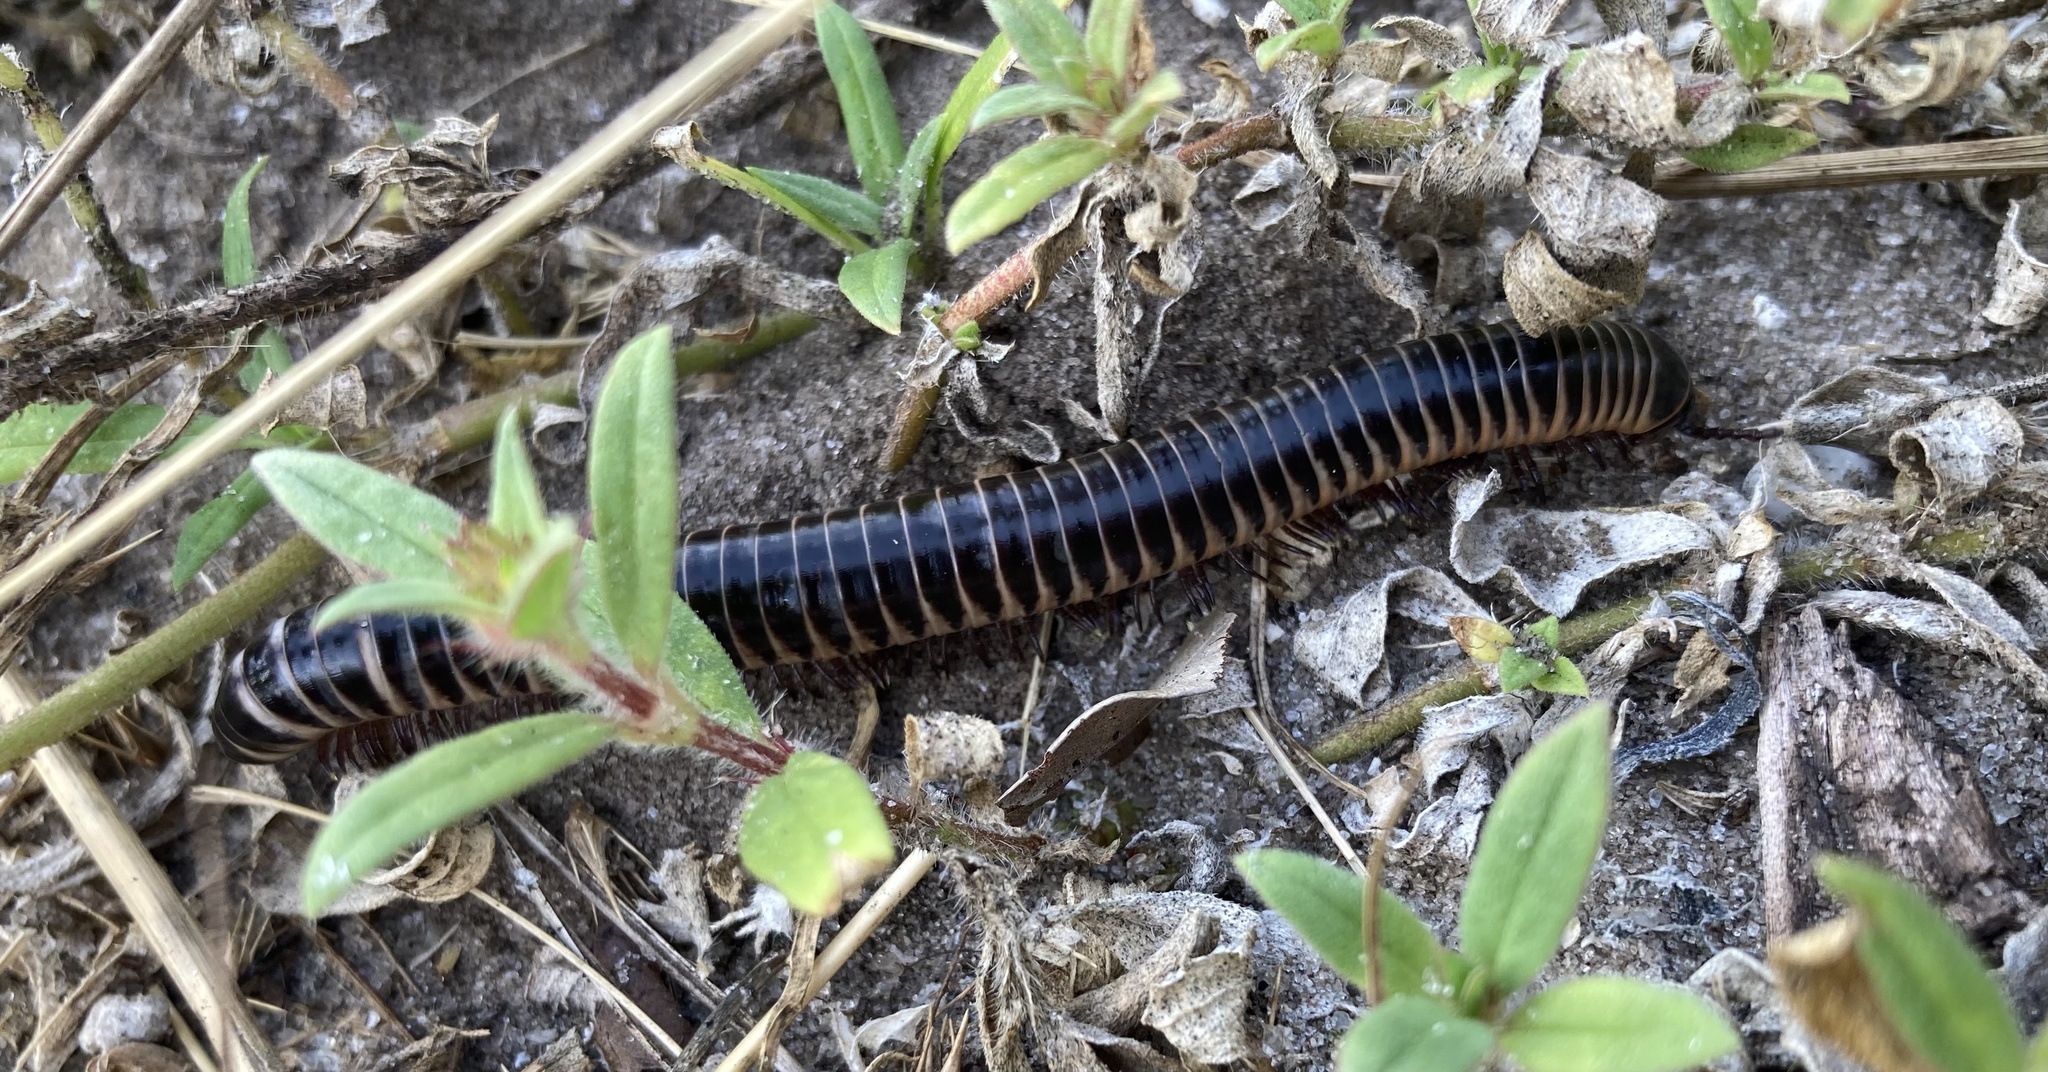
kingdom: Animalia
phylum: Arthropoda
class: Diplopoda
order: Spirobolida
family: Spirobolidae
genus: Chicobolus
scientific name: Chicobolus spinigerus
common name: Florida ivory millipede
